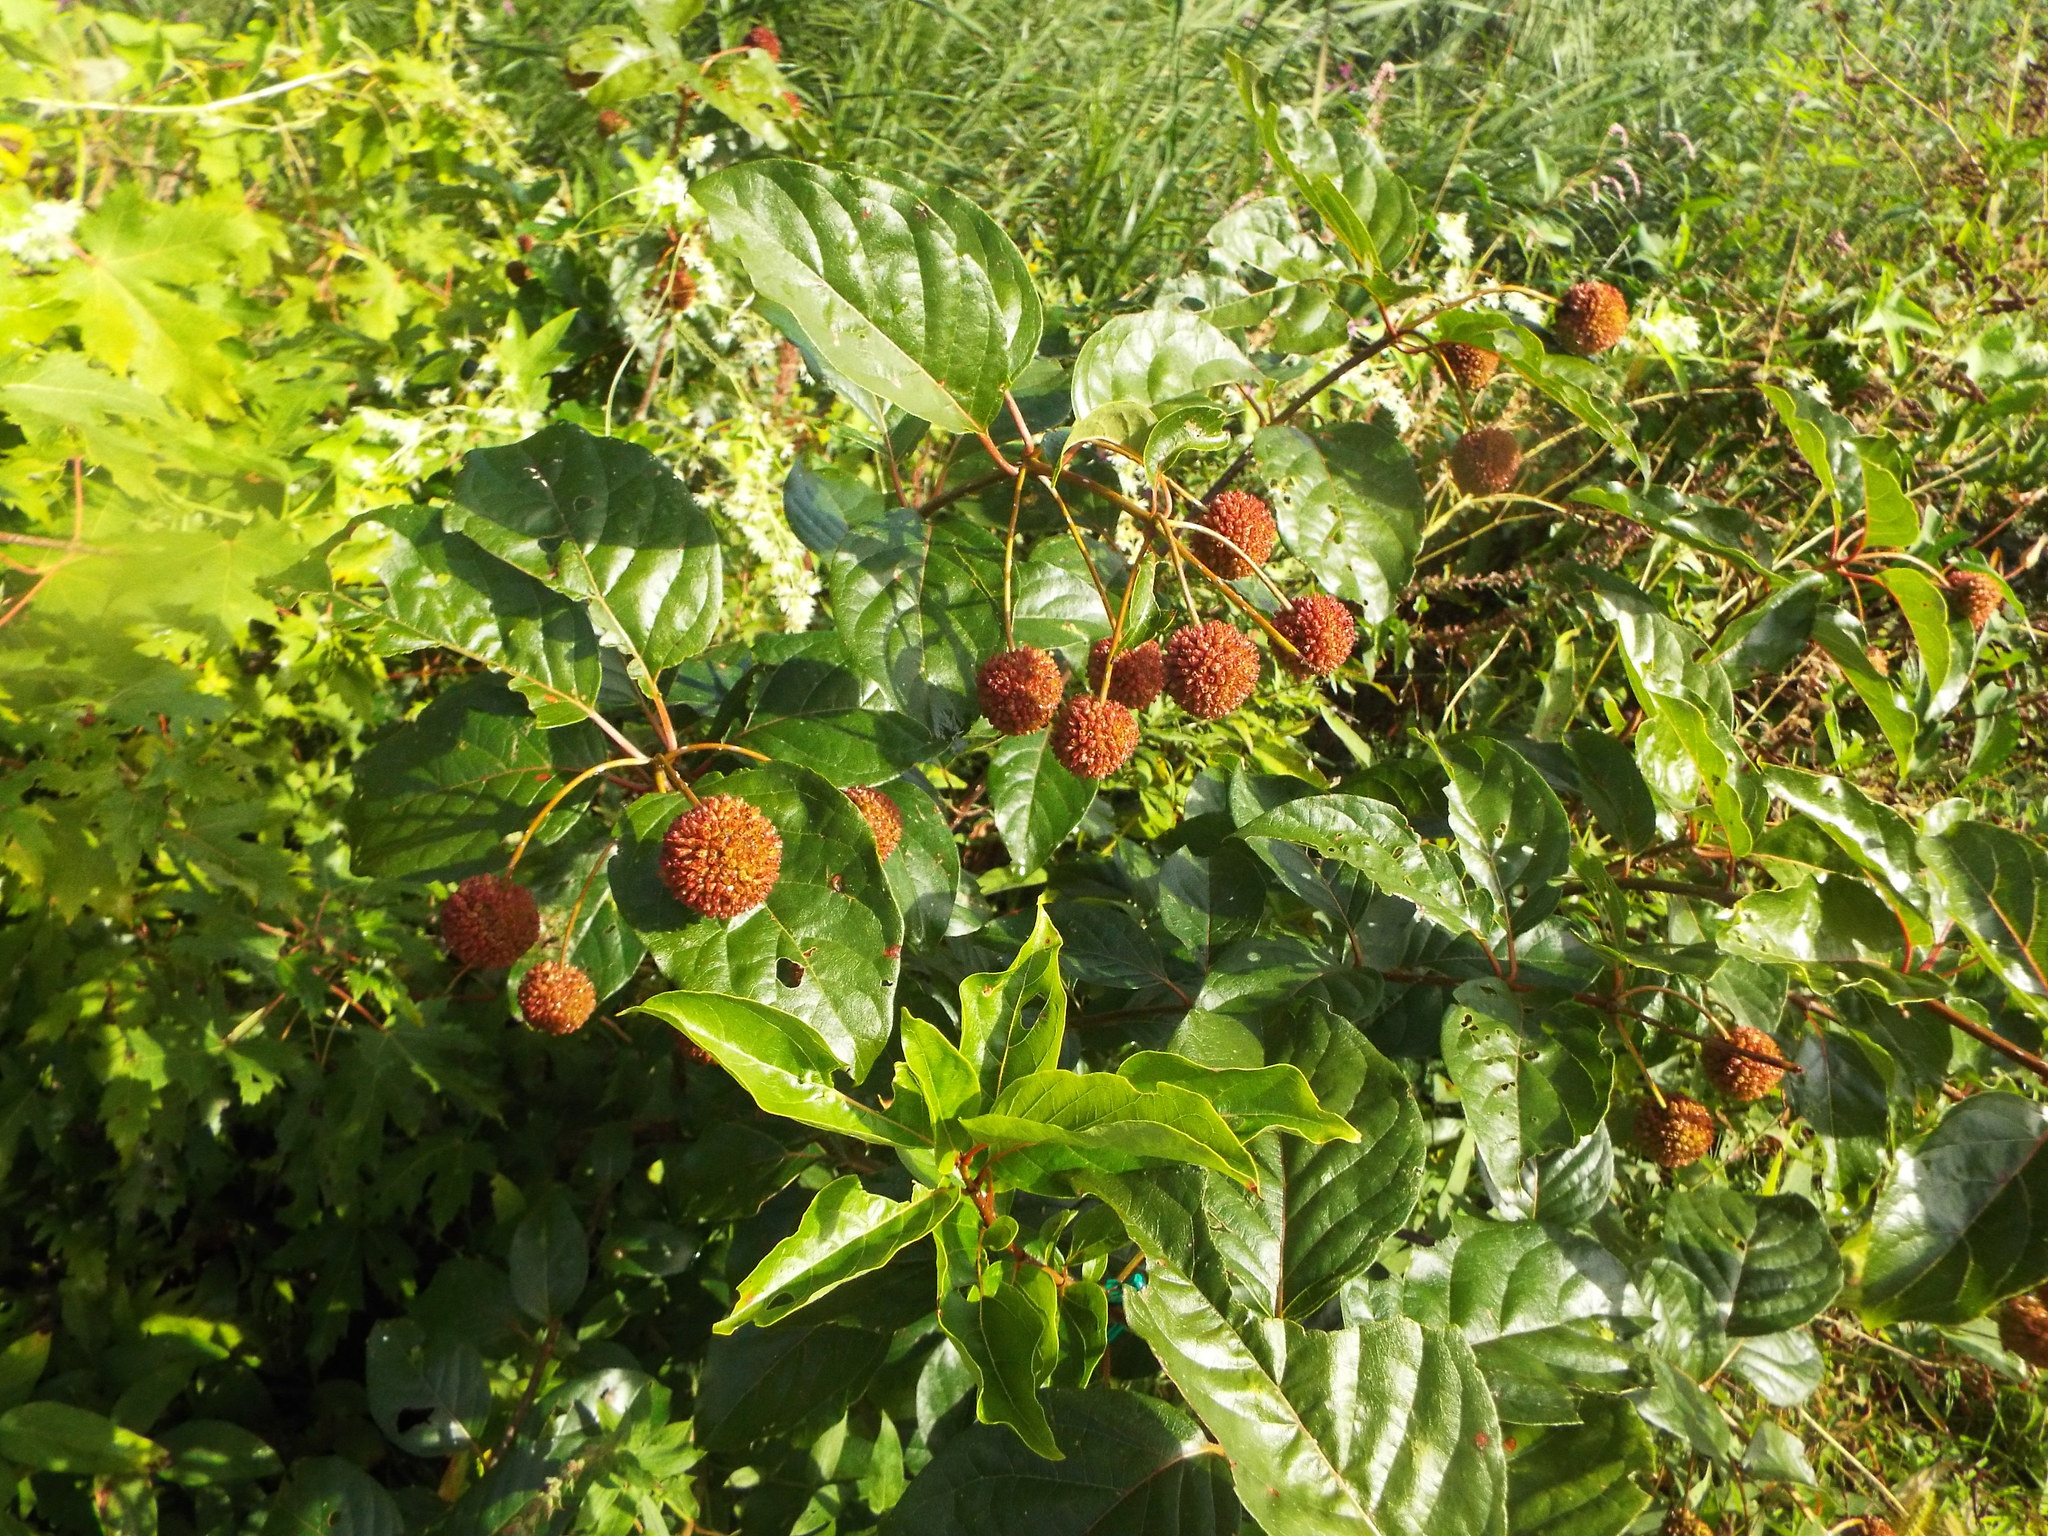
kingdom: Plantae
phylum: Tracheophyta
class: Magnoliopsida
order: Gentianales
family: Rubiaceae
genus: Cephalanthus
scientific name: Cephalanthus occidentalis
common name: Button-willow
